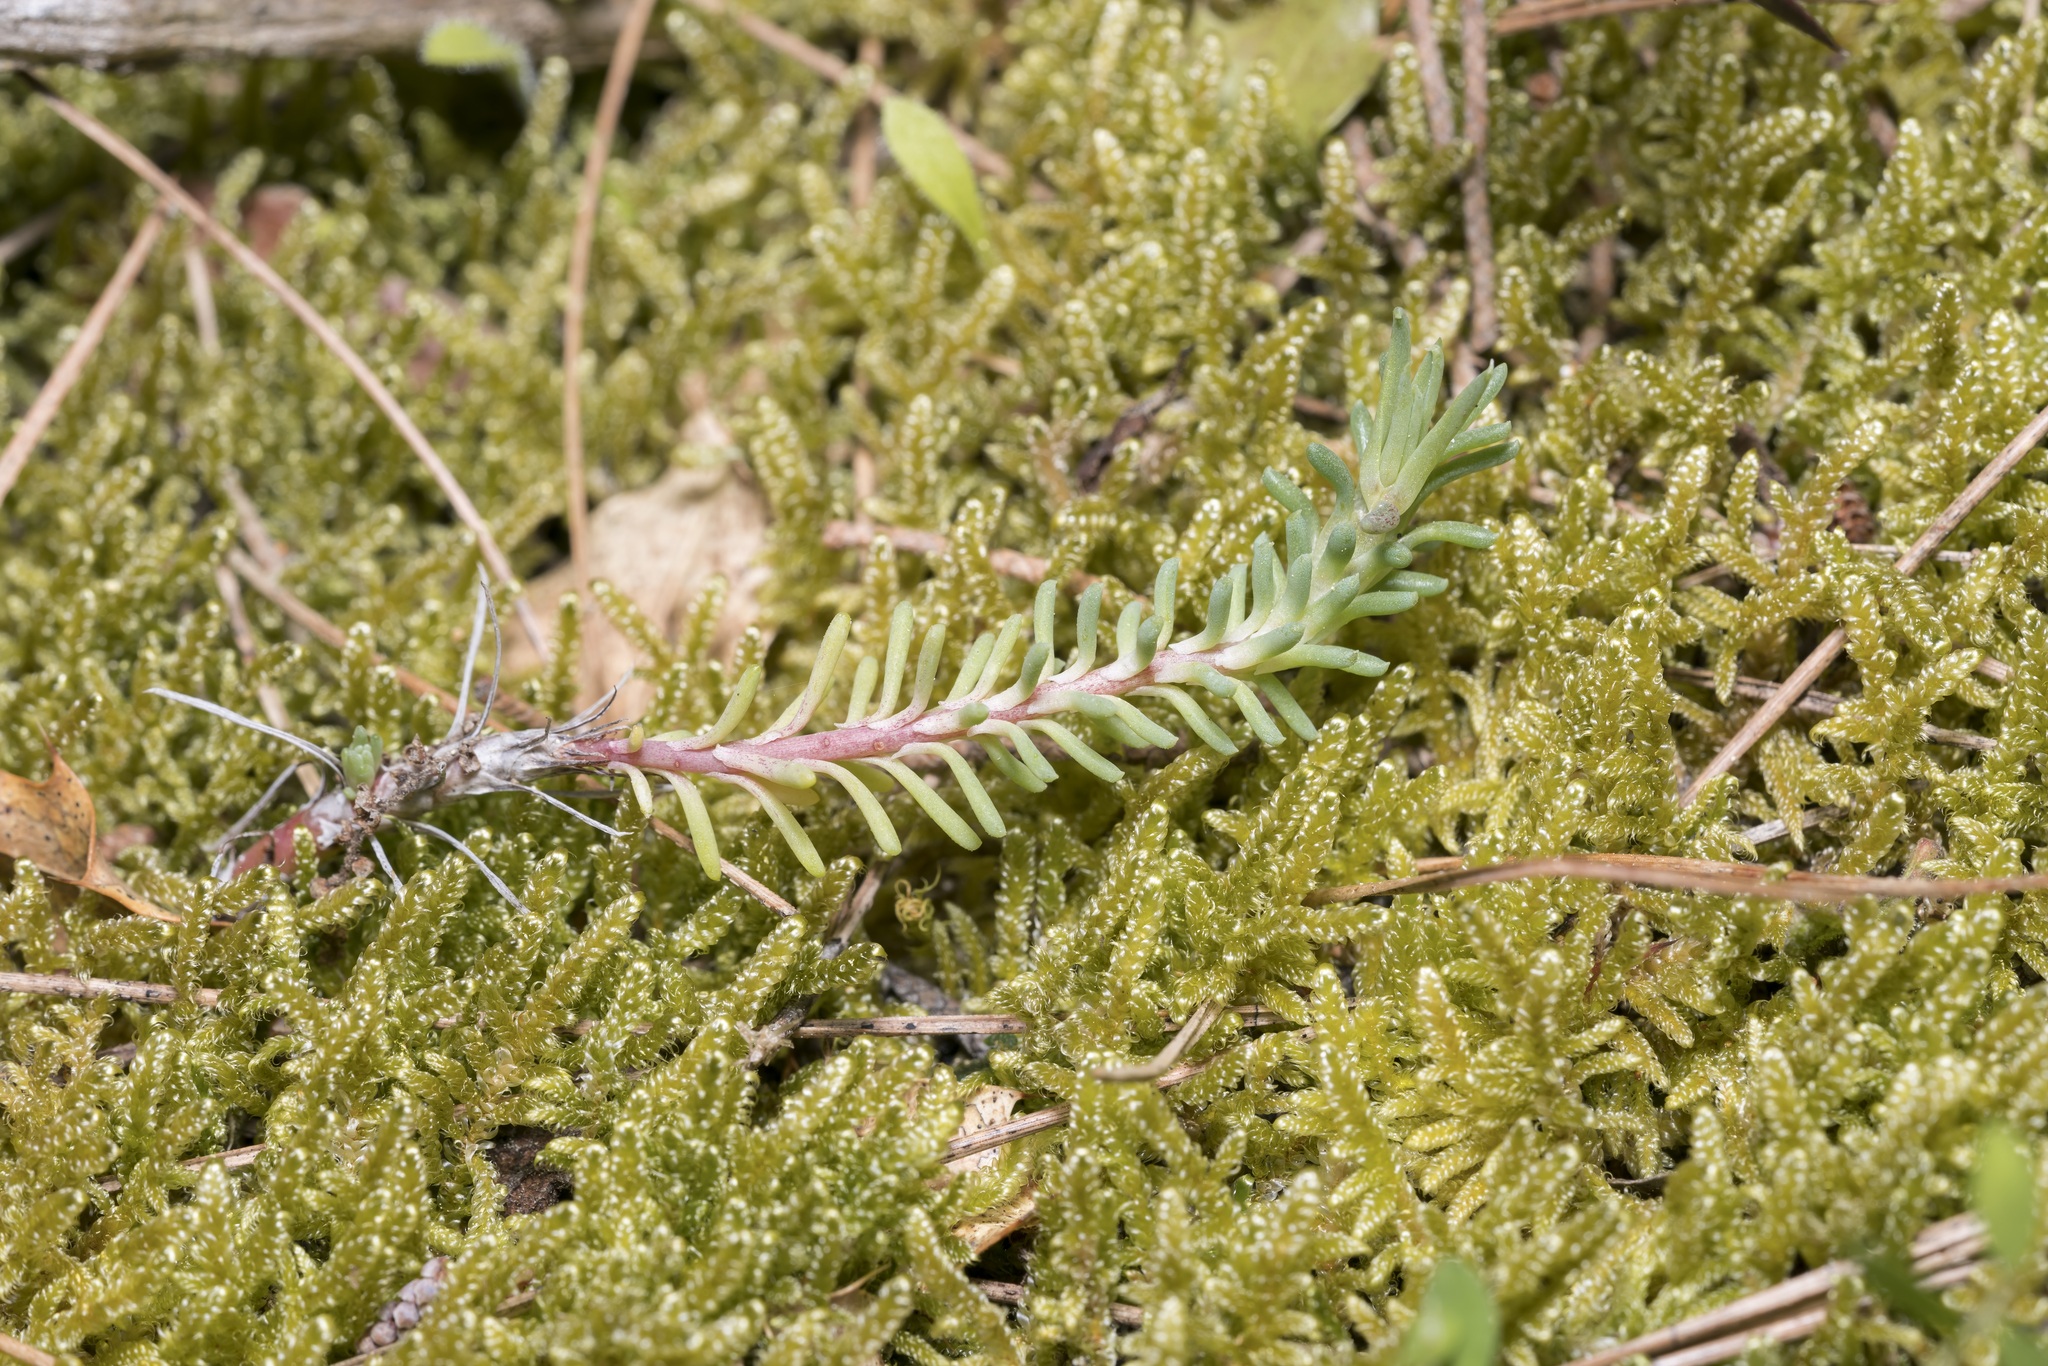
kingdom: Plantae
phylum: Tracheophyta
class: Magnoliopsida
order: Saxifragales
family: Crassulaceae
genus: Petrosedum
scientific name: Petrosedum tenuifolium
